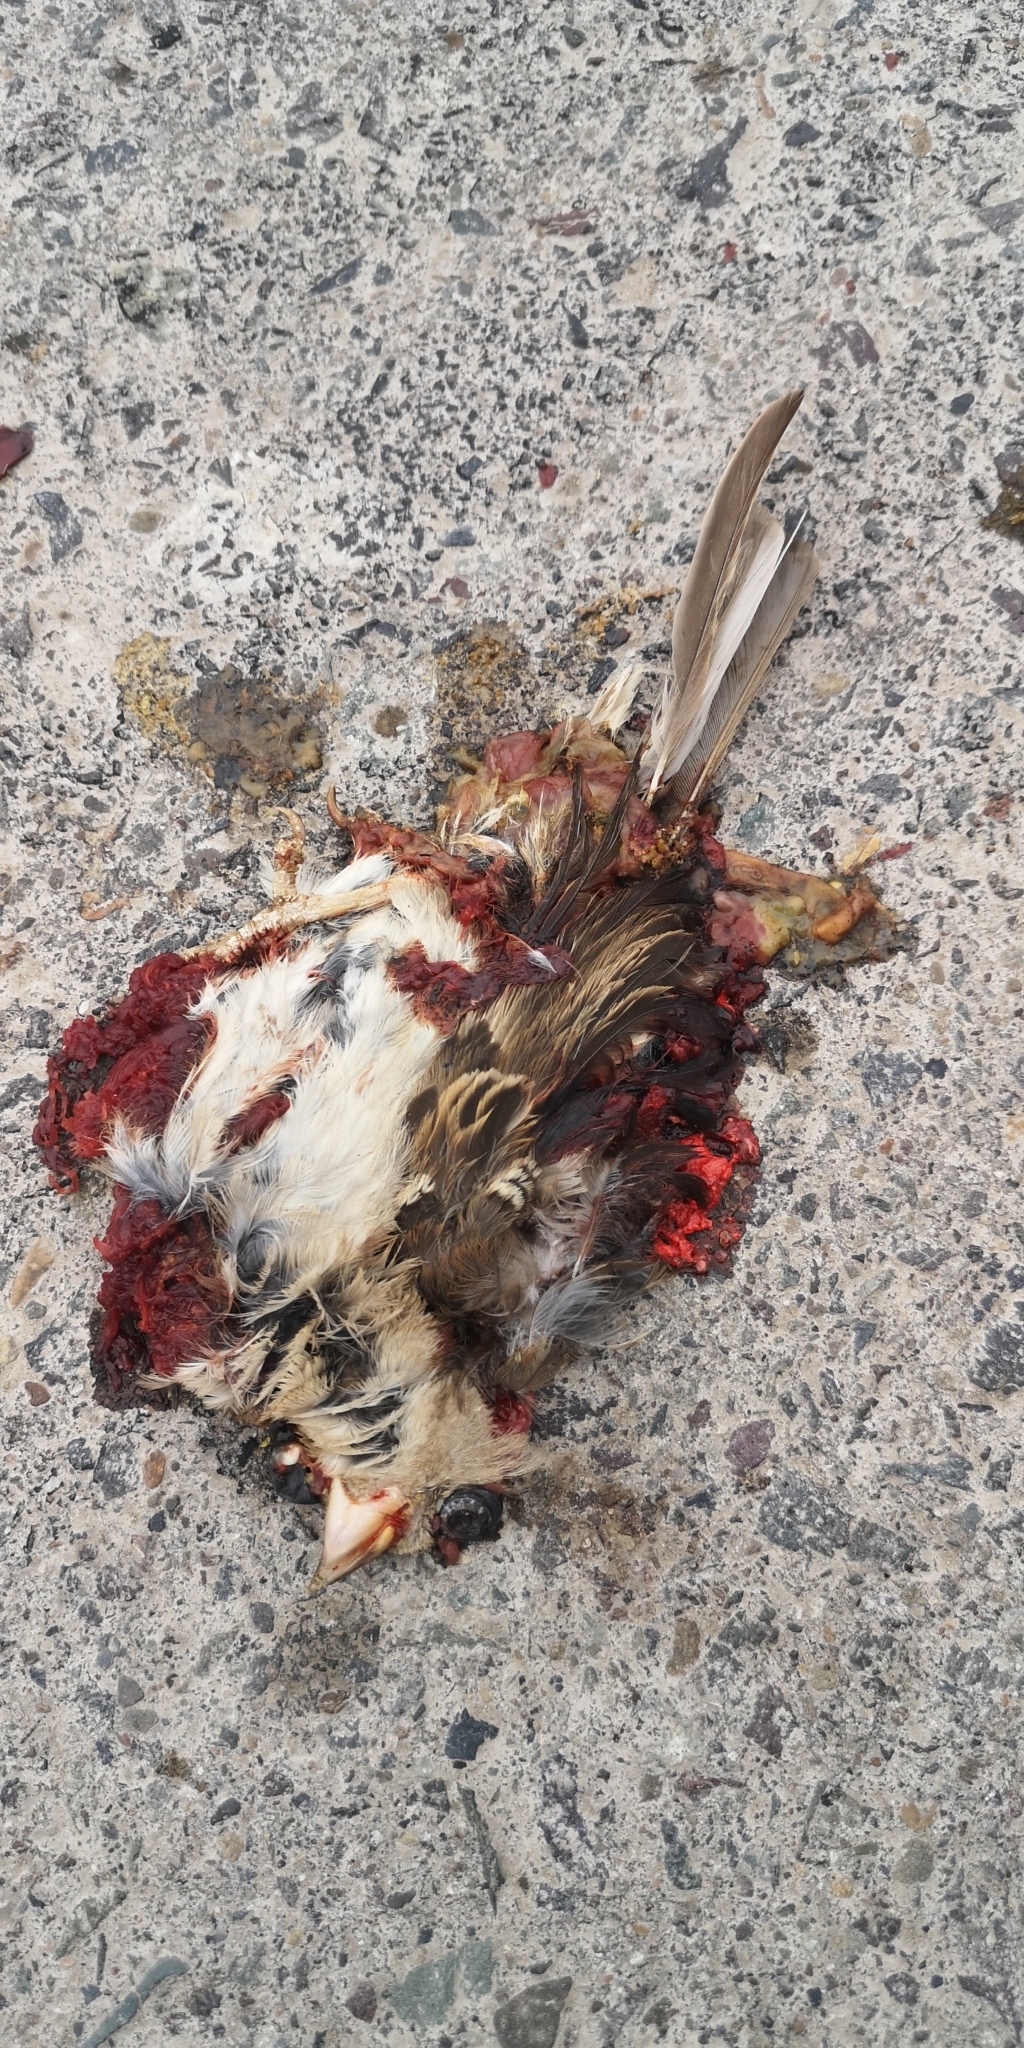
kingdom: Animalia
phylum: Chordata
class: Aves
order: Passeriformes
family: Passeridae
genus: Passer
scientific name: Passer domesticus
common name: House sparrow
